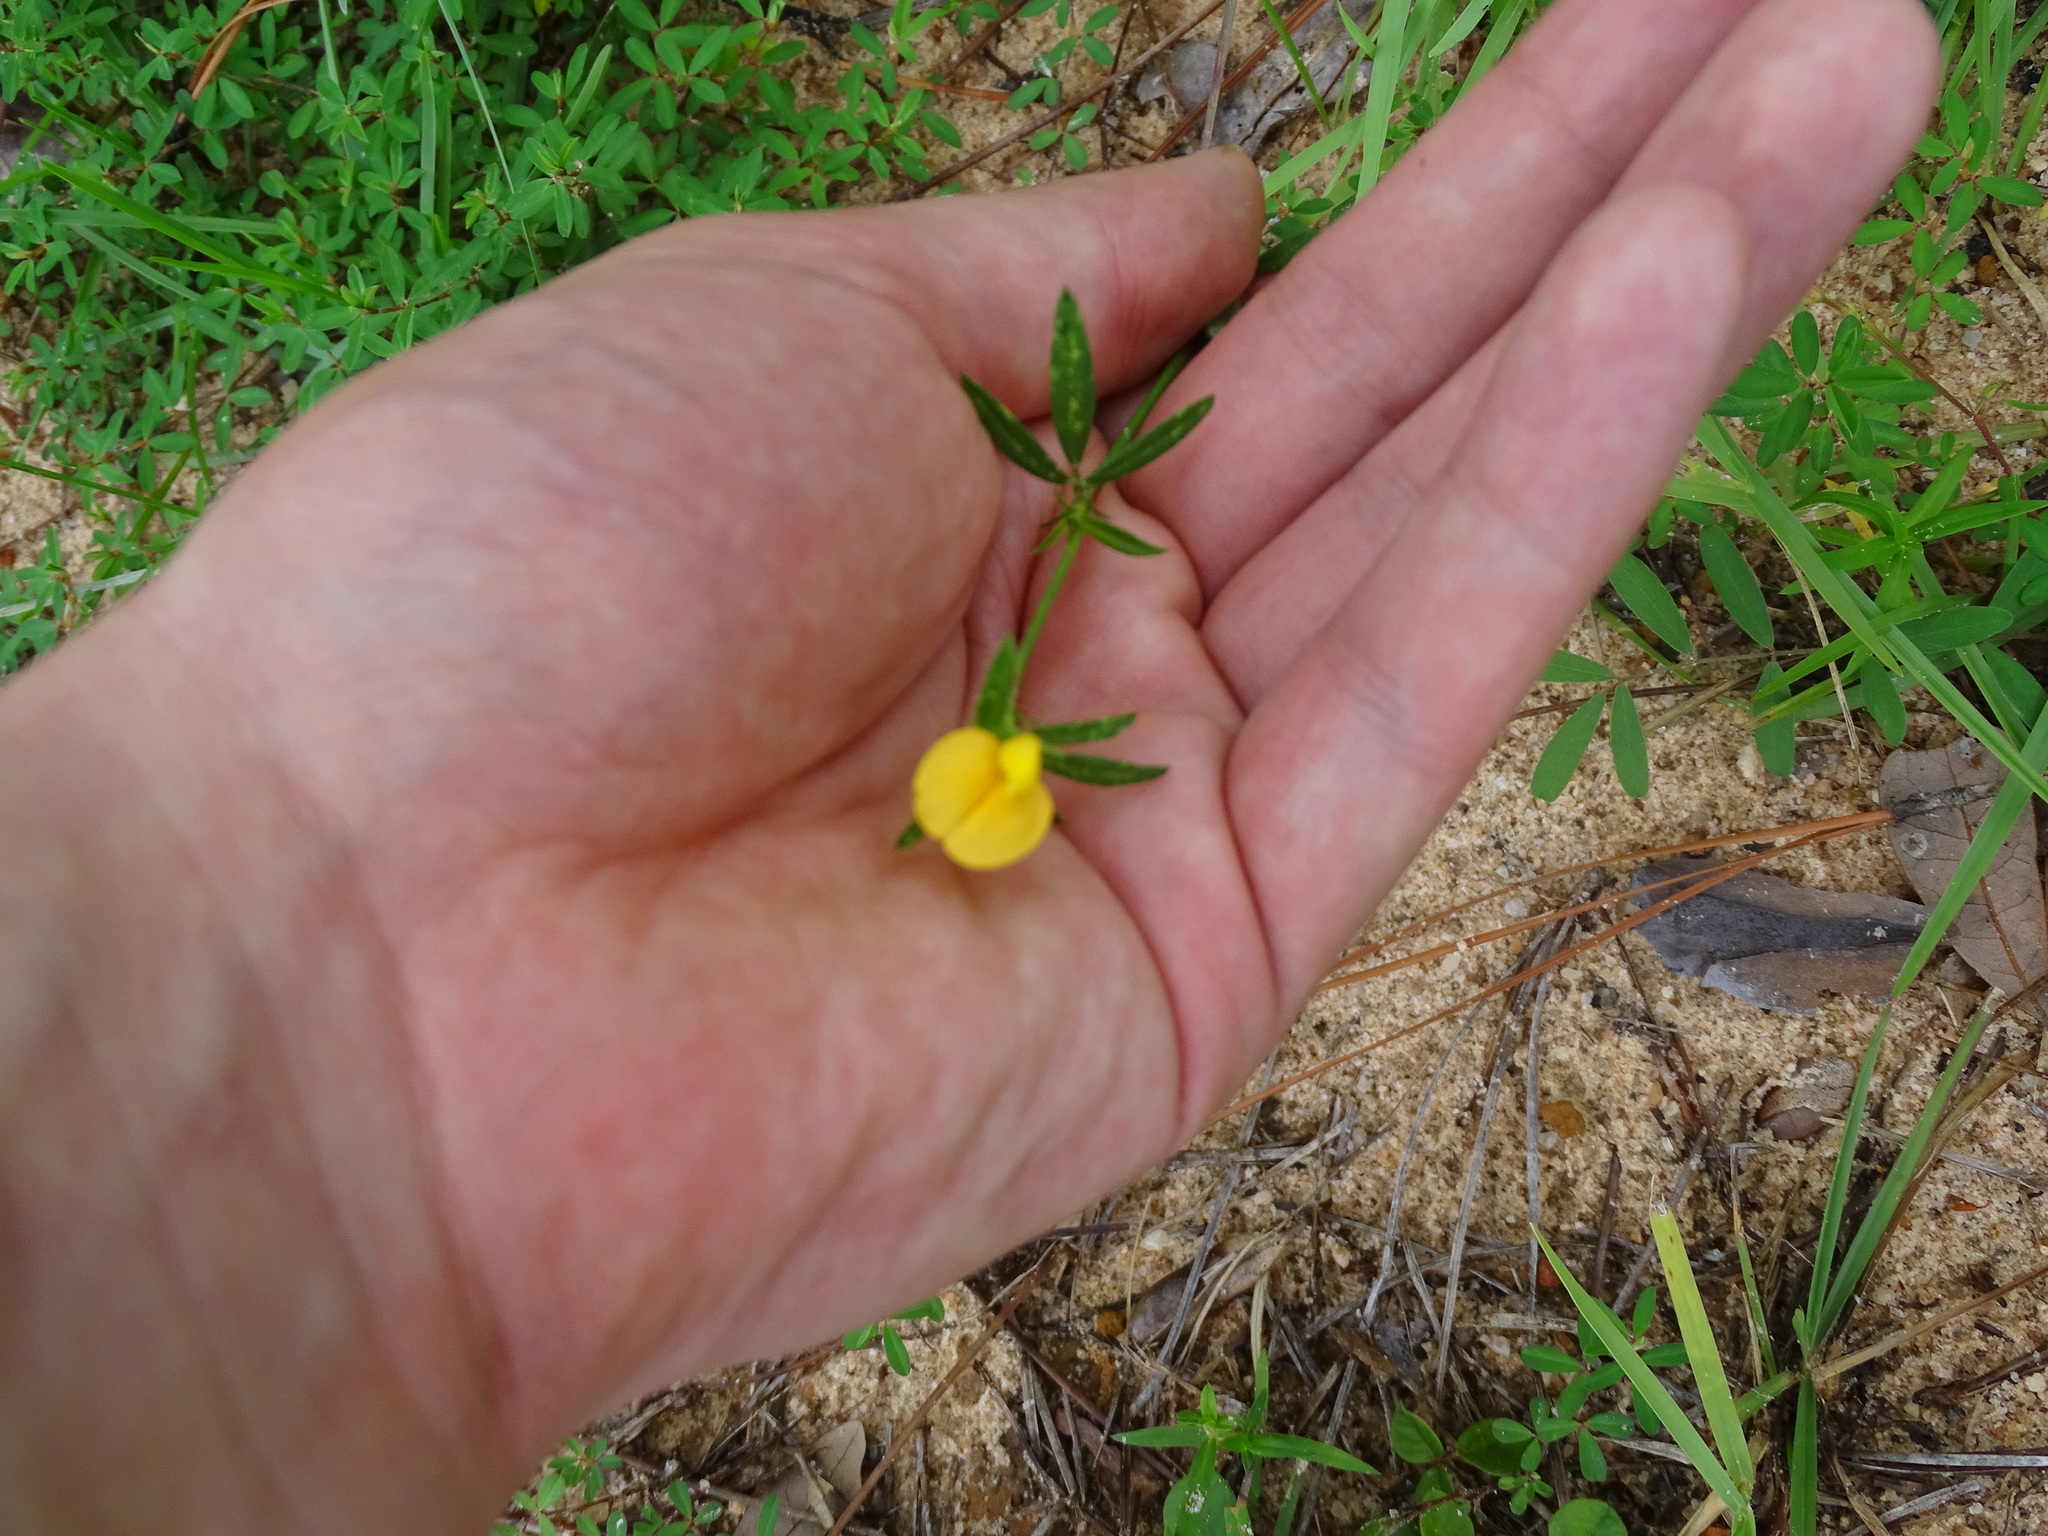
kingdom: Plantae
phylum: Tracheophyta
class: Magnoliopsida
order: Fabales
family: Fabaceae
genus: Stylosanthes
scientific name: Stylosanthes biflora
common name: Two-flower pencil-flower
